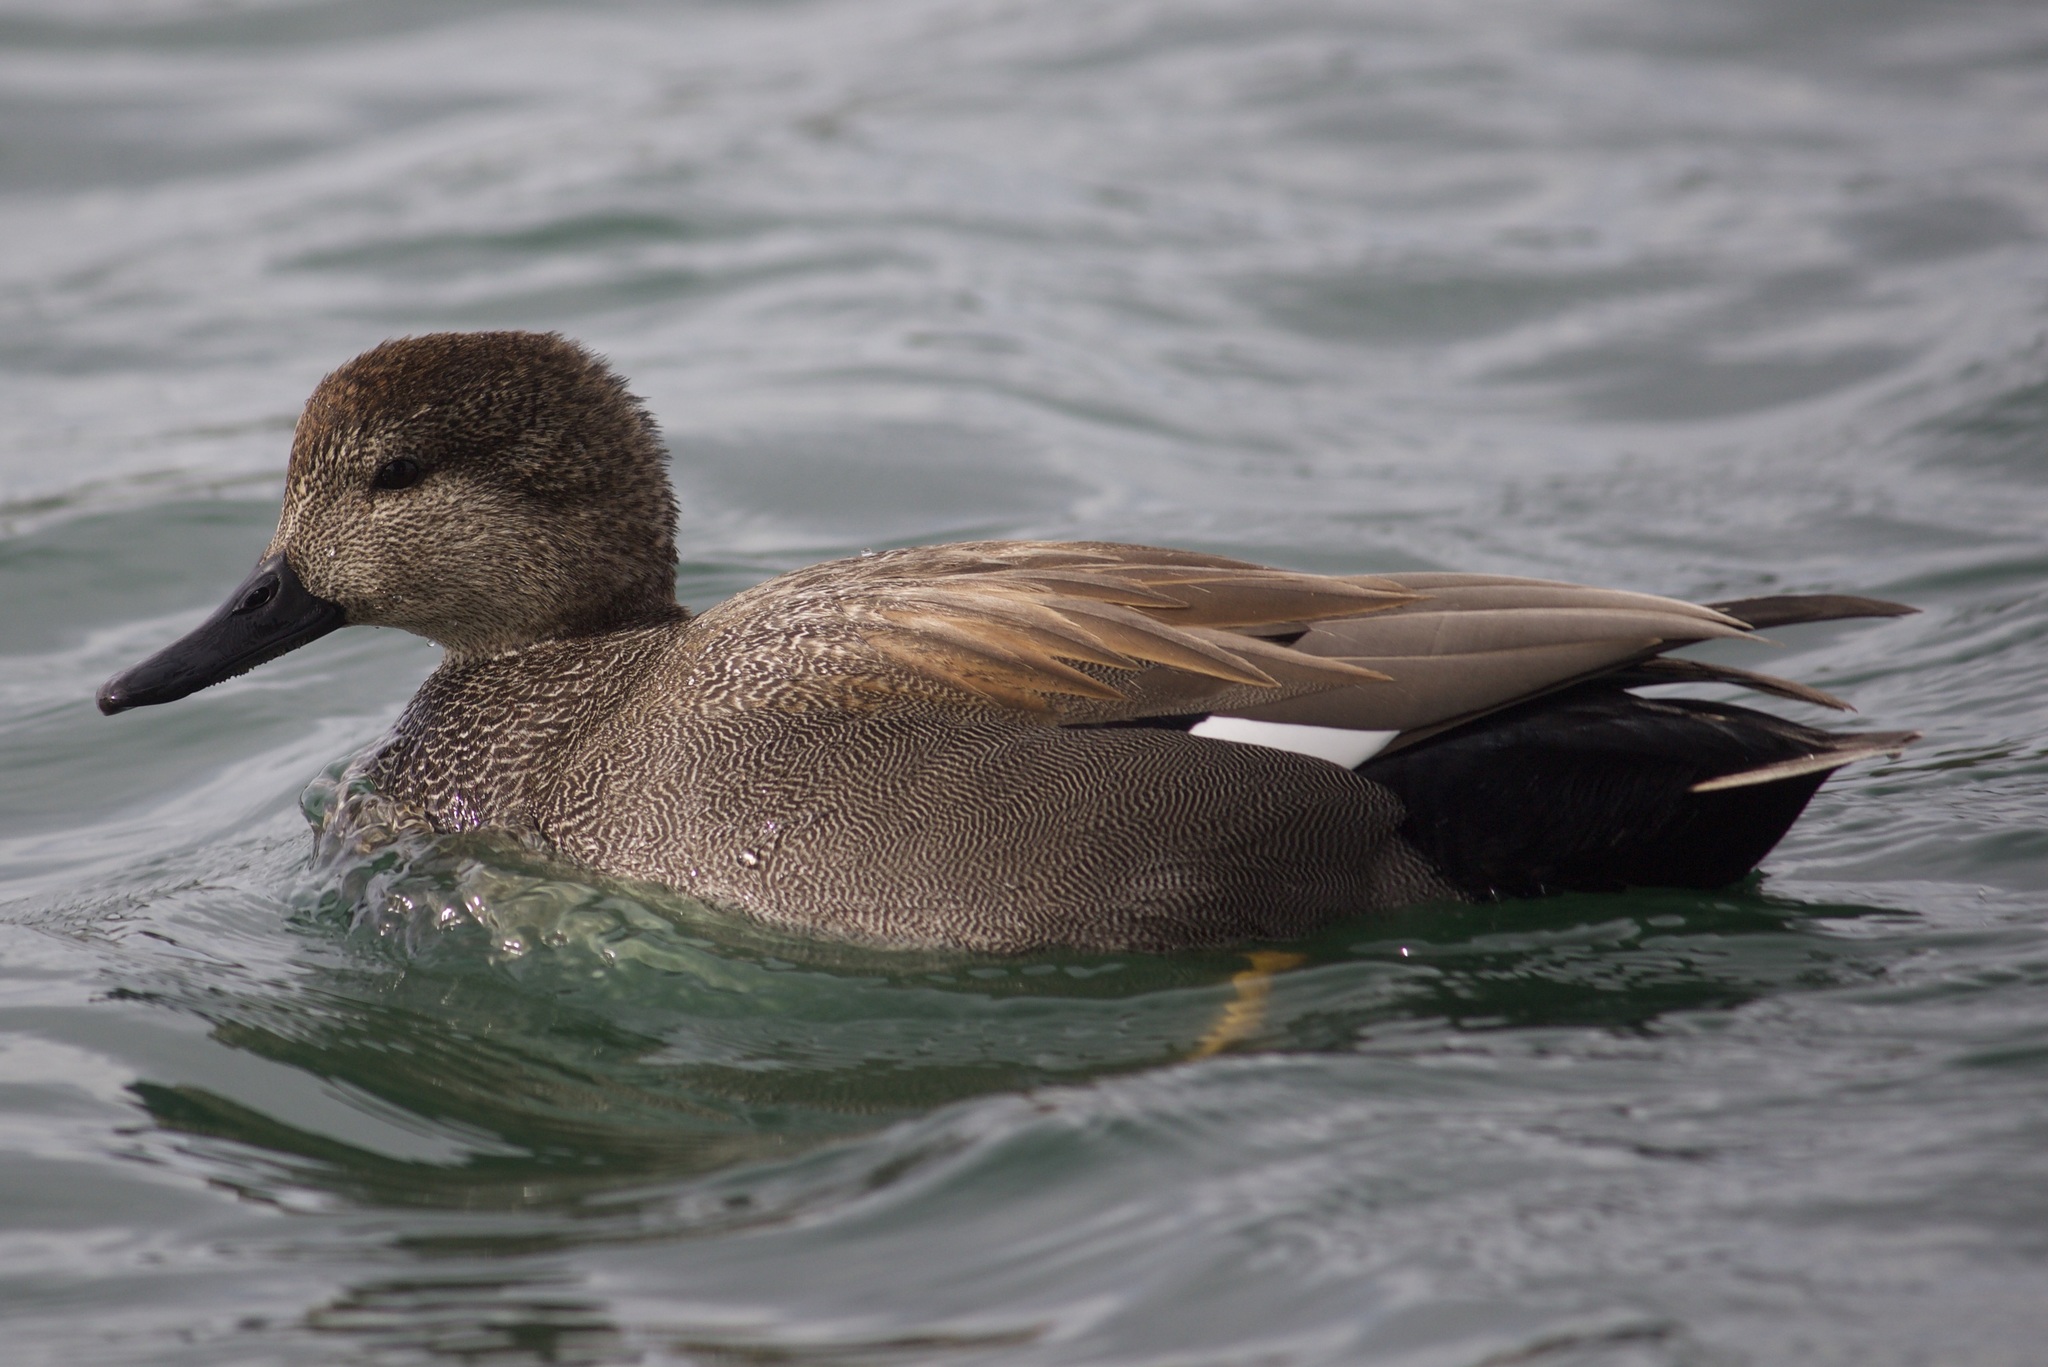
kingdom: Animalia
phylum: Chordata
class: Aves
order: Anseriformes
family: Anatidae
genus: Mareca
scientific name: Mareca strepera
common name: Gadwall
